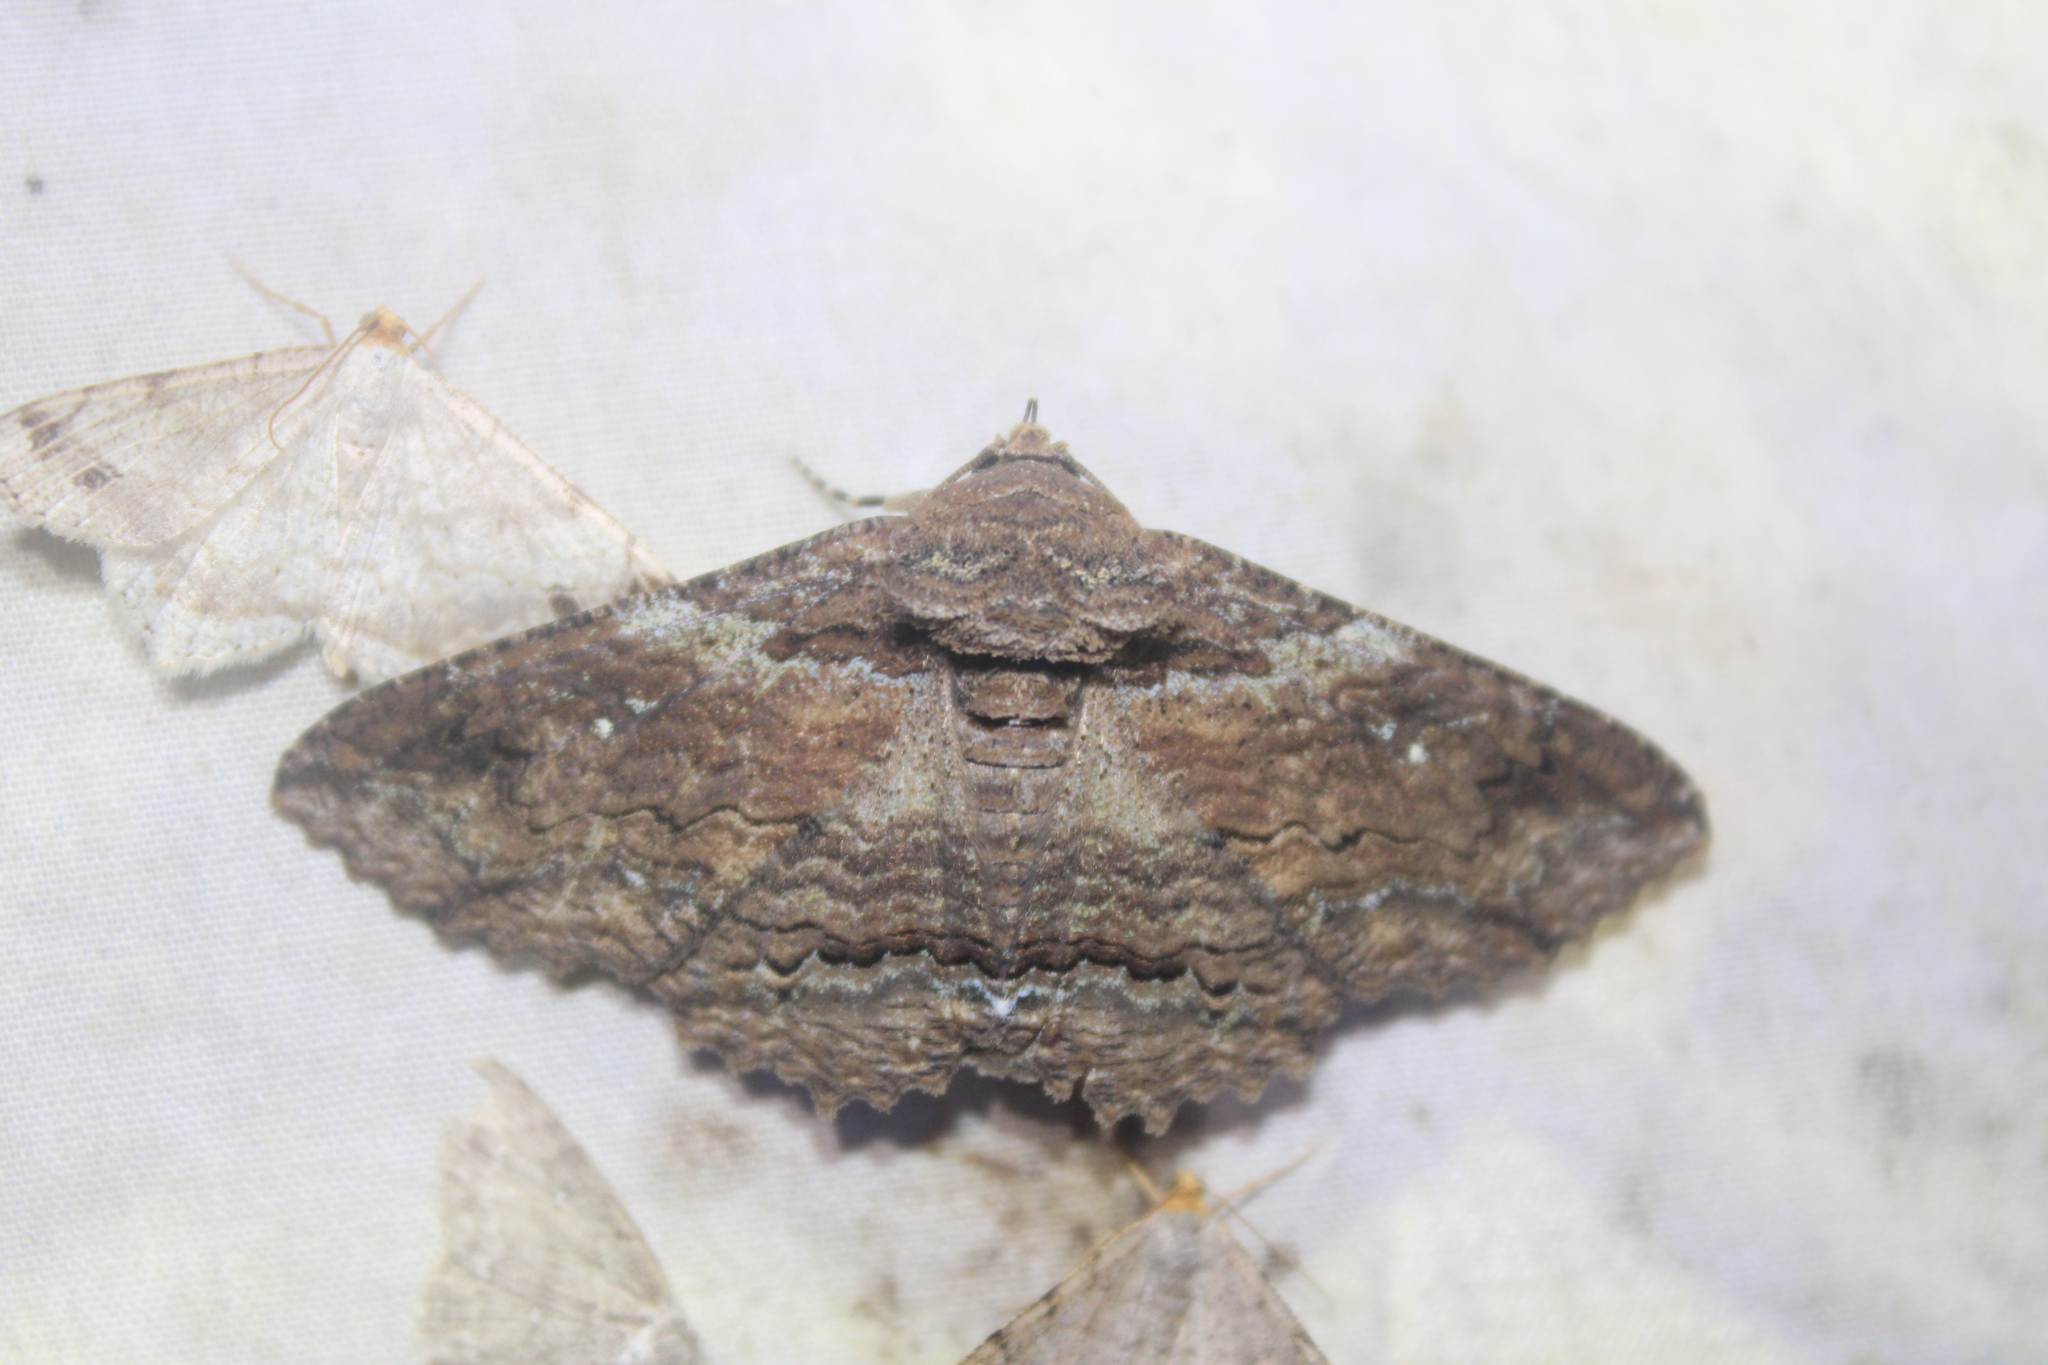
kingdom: Animalia
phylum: Arthropoda
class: Insecta
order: Lepidoptera
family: Erebidae
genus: Zale
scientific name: Zale lunata
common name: Lunate zale moth
